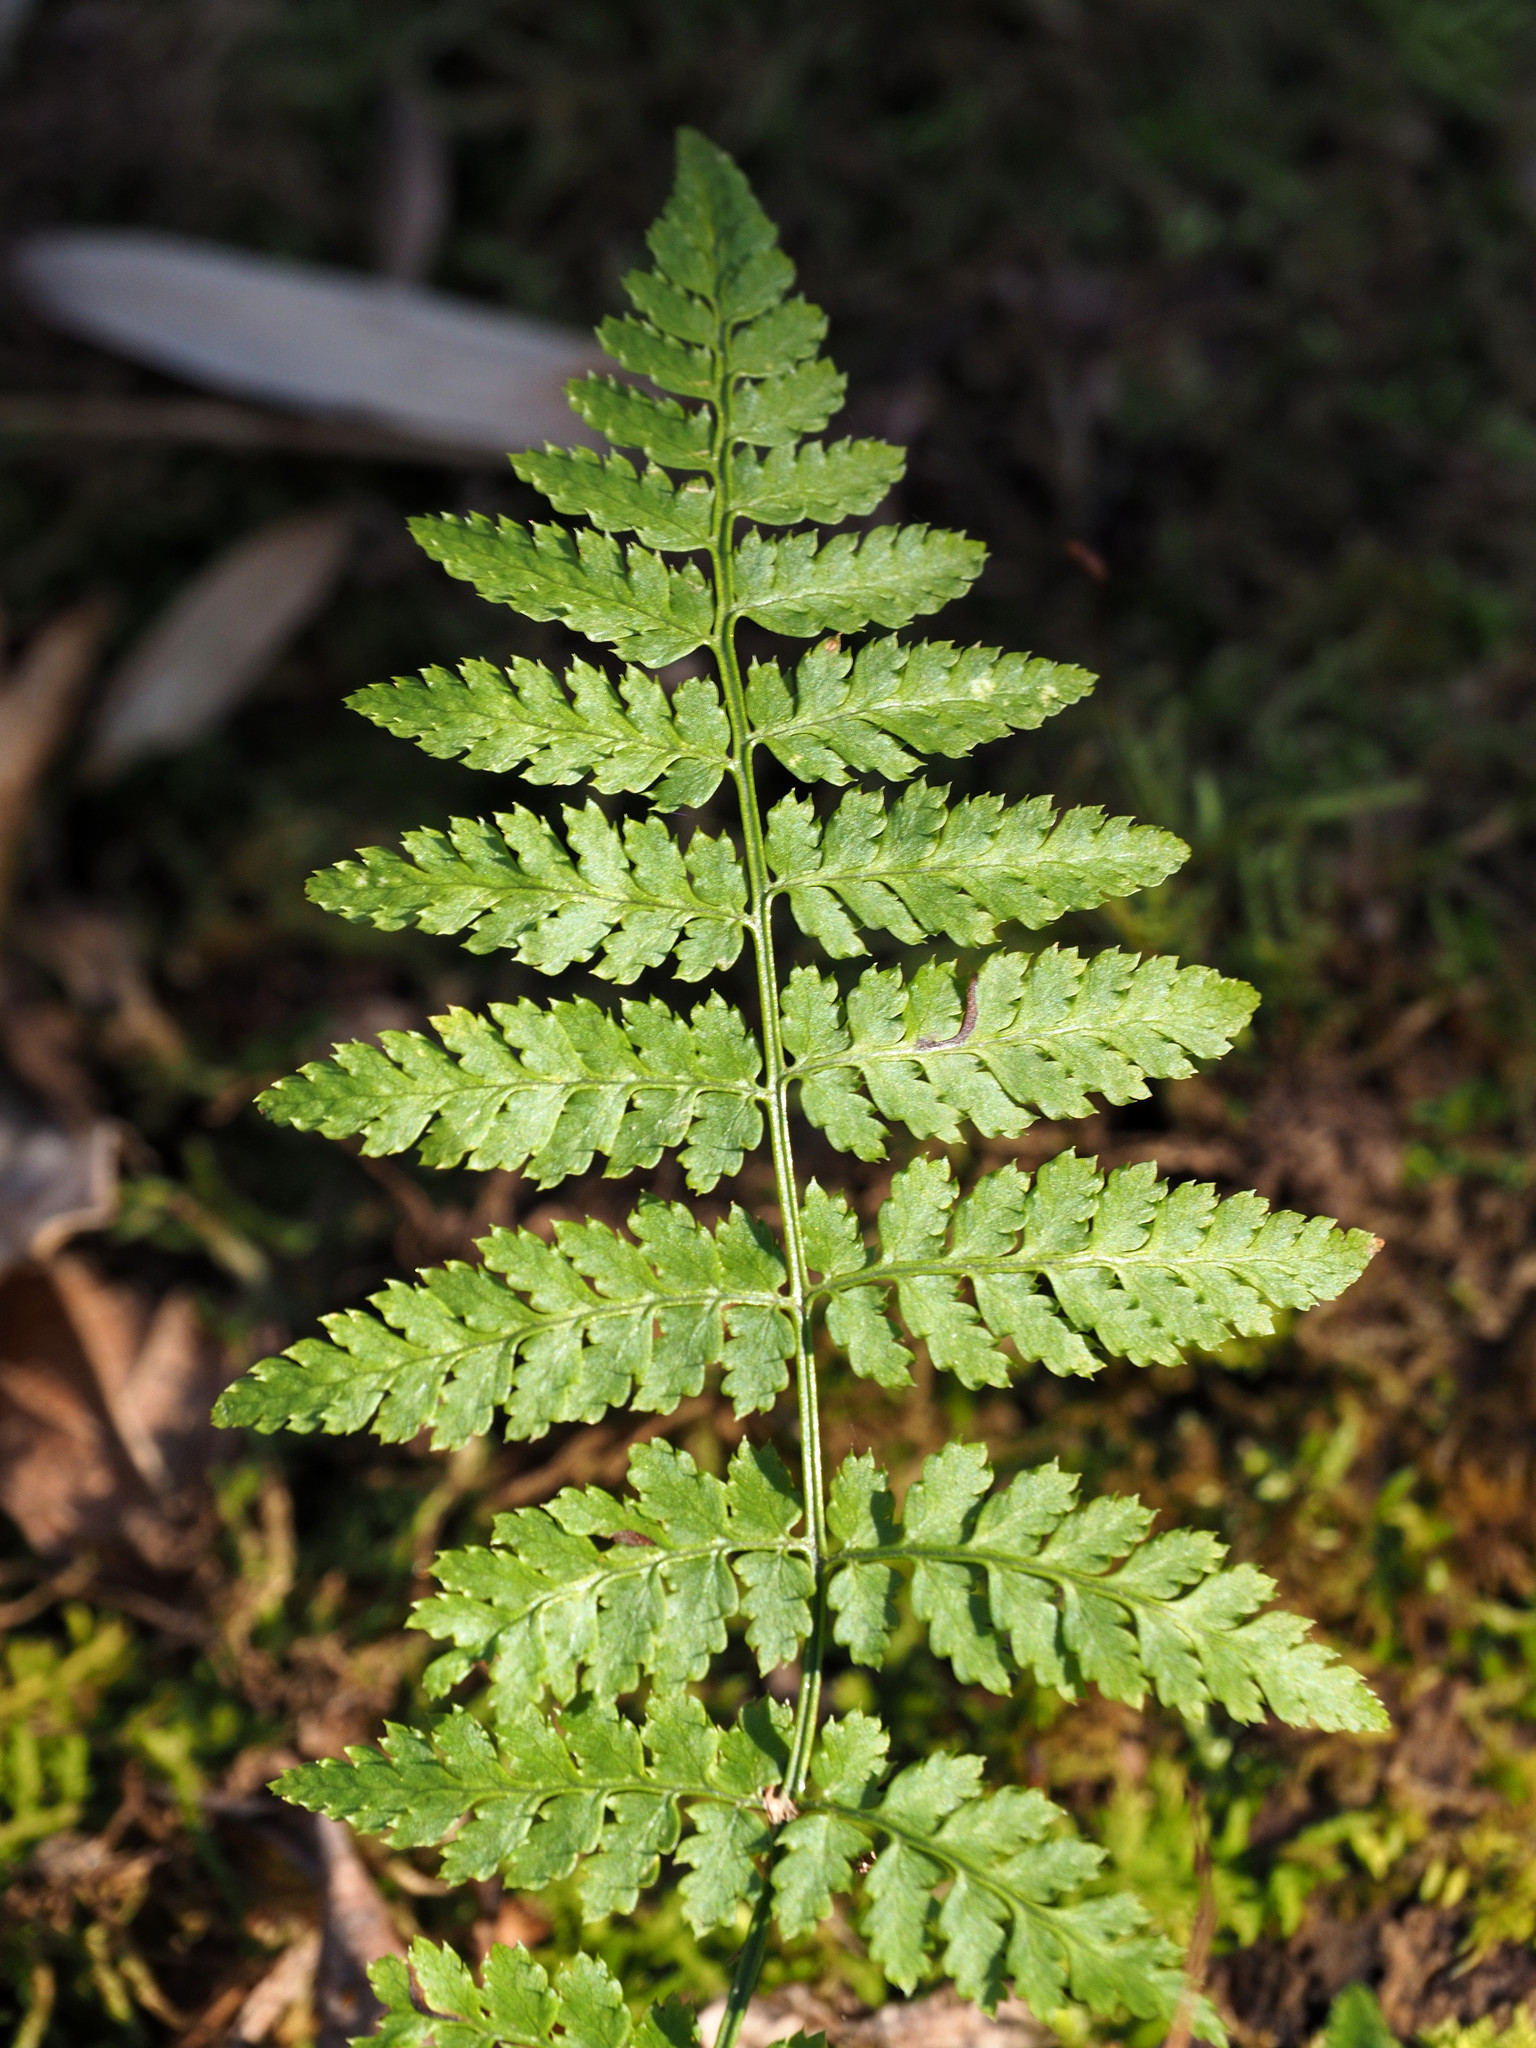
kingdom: Plantae
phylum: Tracheophyta
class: Polypodiopsida
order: Polypodiales
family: Dryopteridaceae
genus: Dryopteris
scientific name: Dryopteris intermedia
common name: Evergreen wood fern
